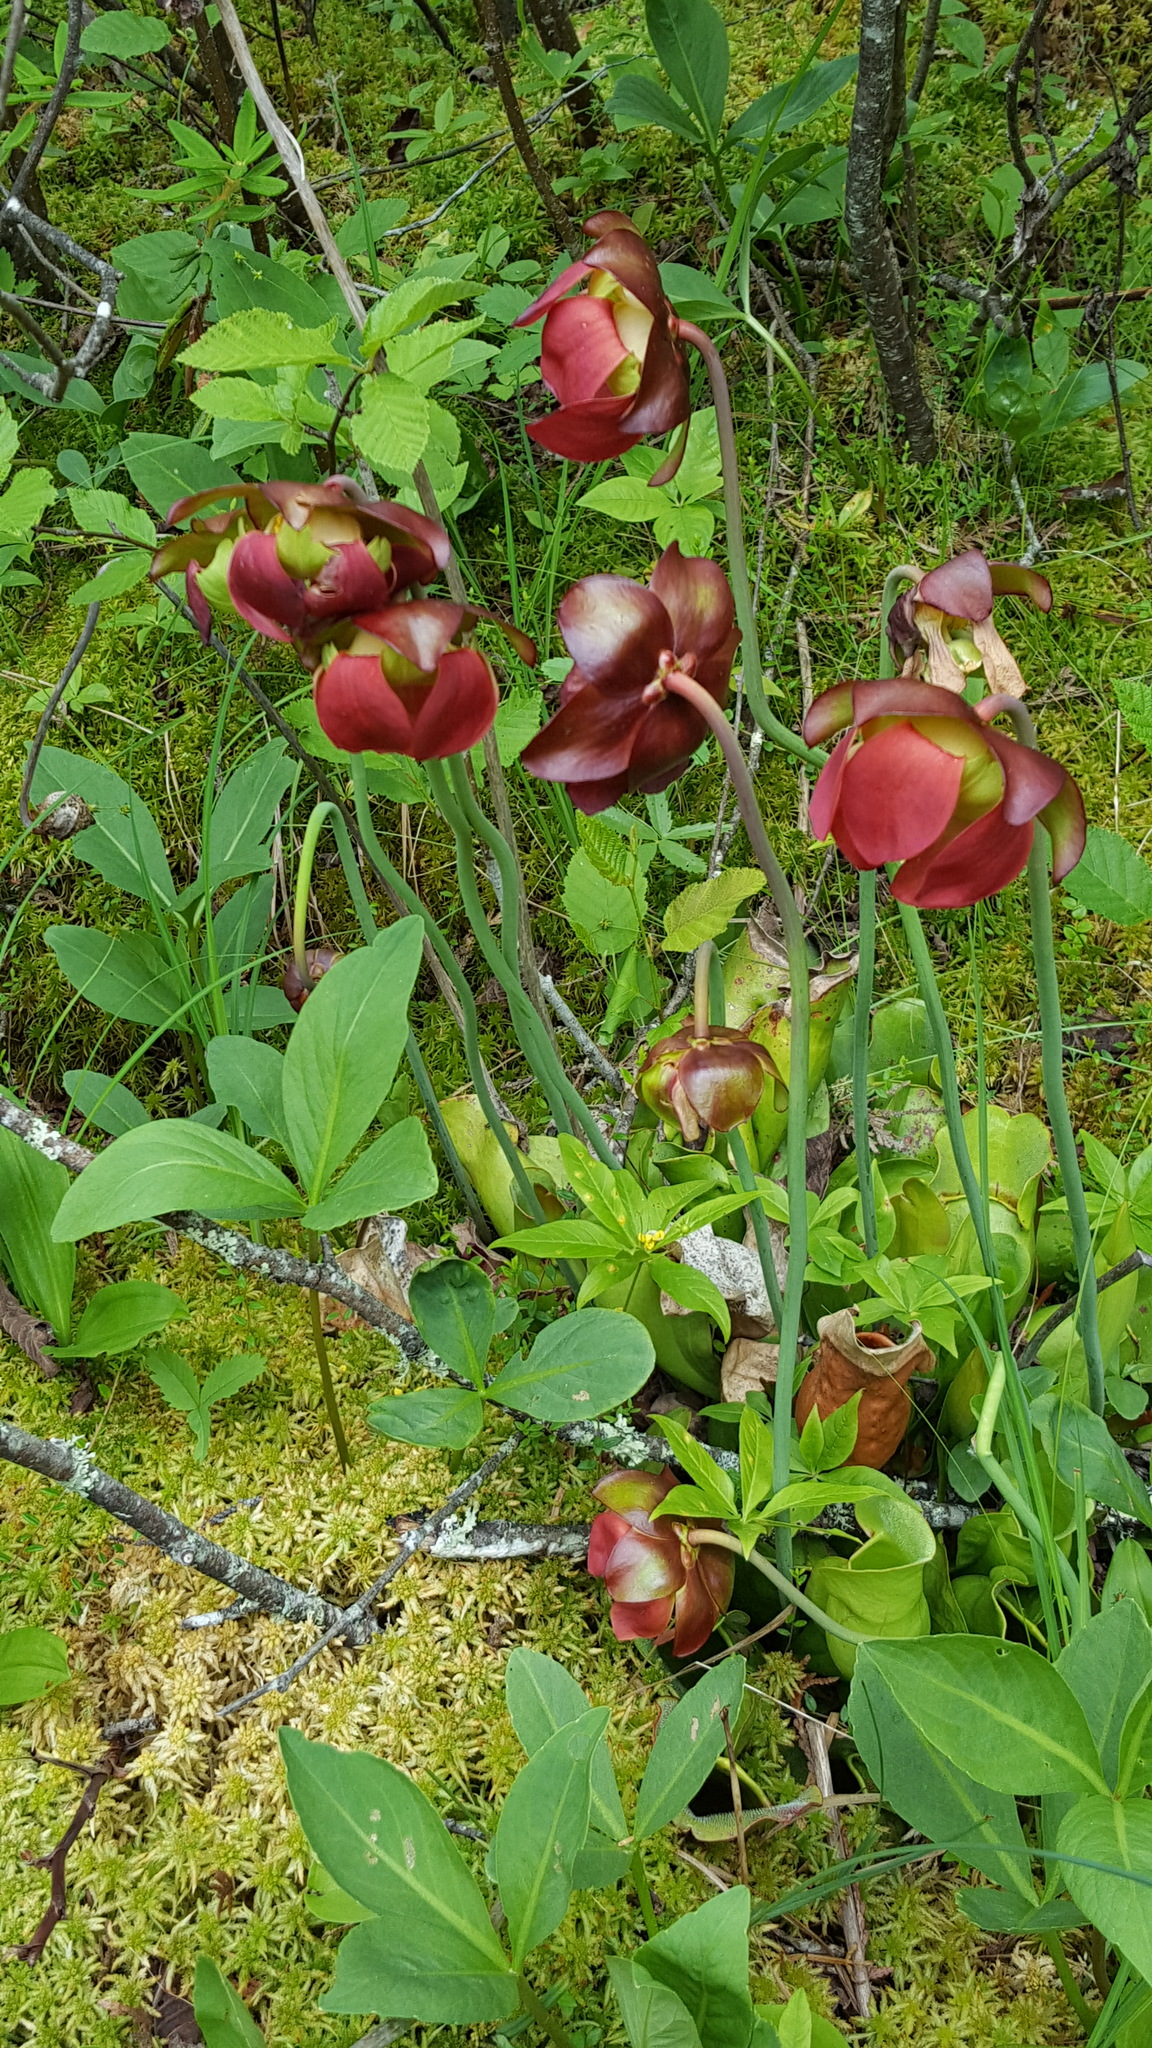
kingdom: Plantae
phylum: Tracheophyta
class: Magnoliopsida
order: Ericales
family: Sarraceniaceae
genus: Sarracenia
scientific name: Sarracenia purpurea
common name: Pitcherplant
